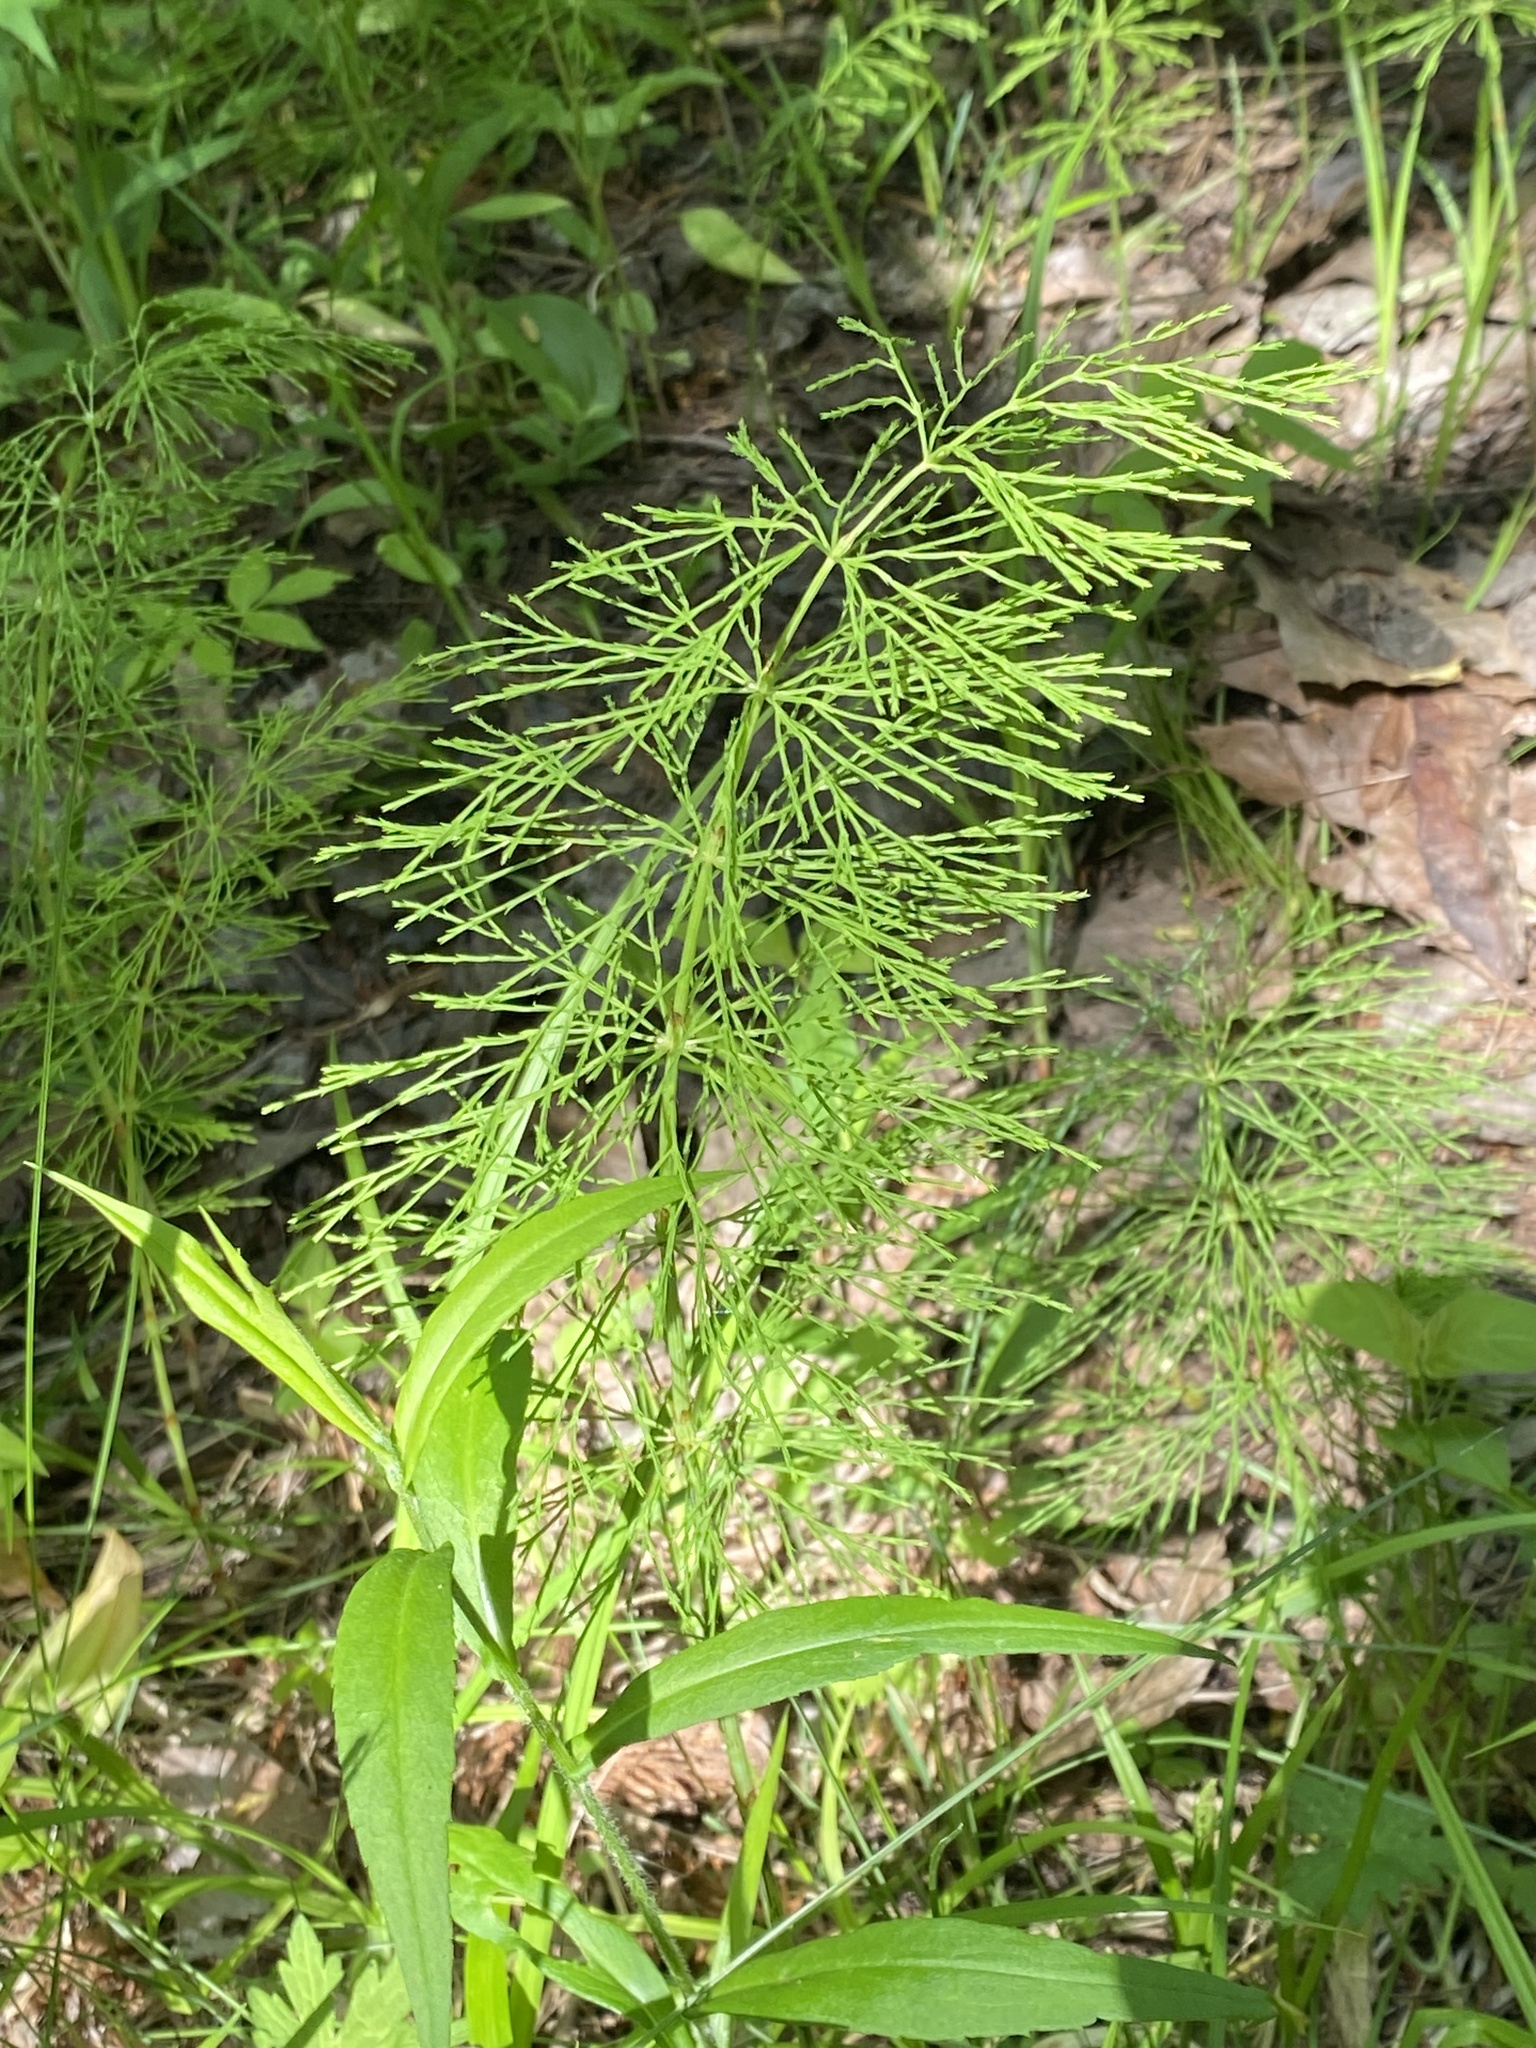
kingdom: Plantae
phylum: Tracheophyta
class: Polypodiopsida
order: Equisetales
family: Equisetaceae
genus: Equisetum
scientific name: Equisetum sylvaticum
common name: Wood horsetail
